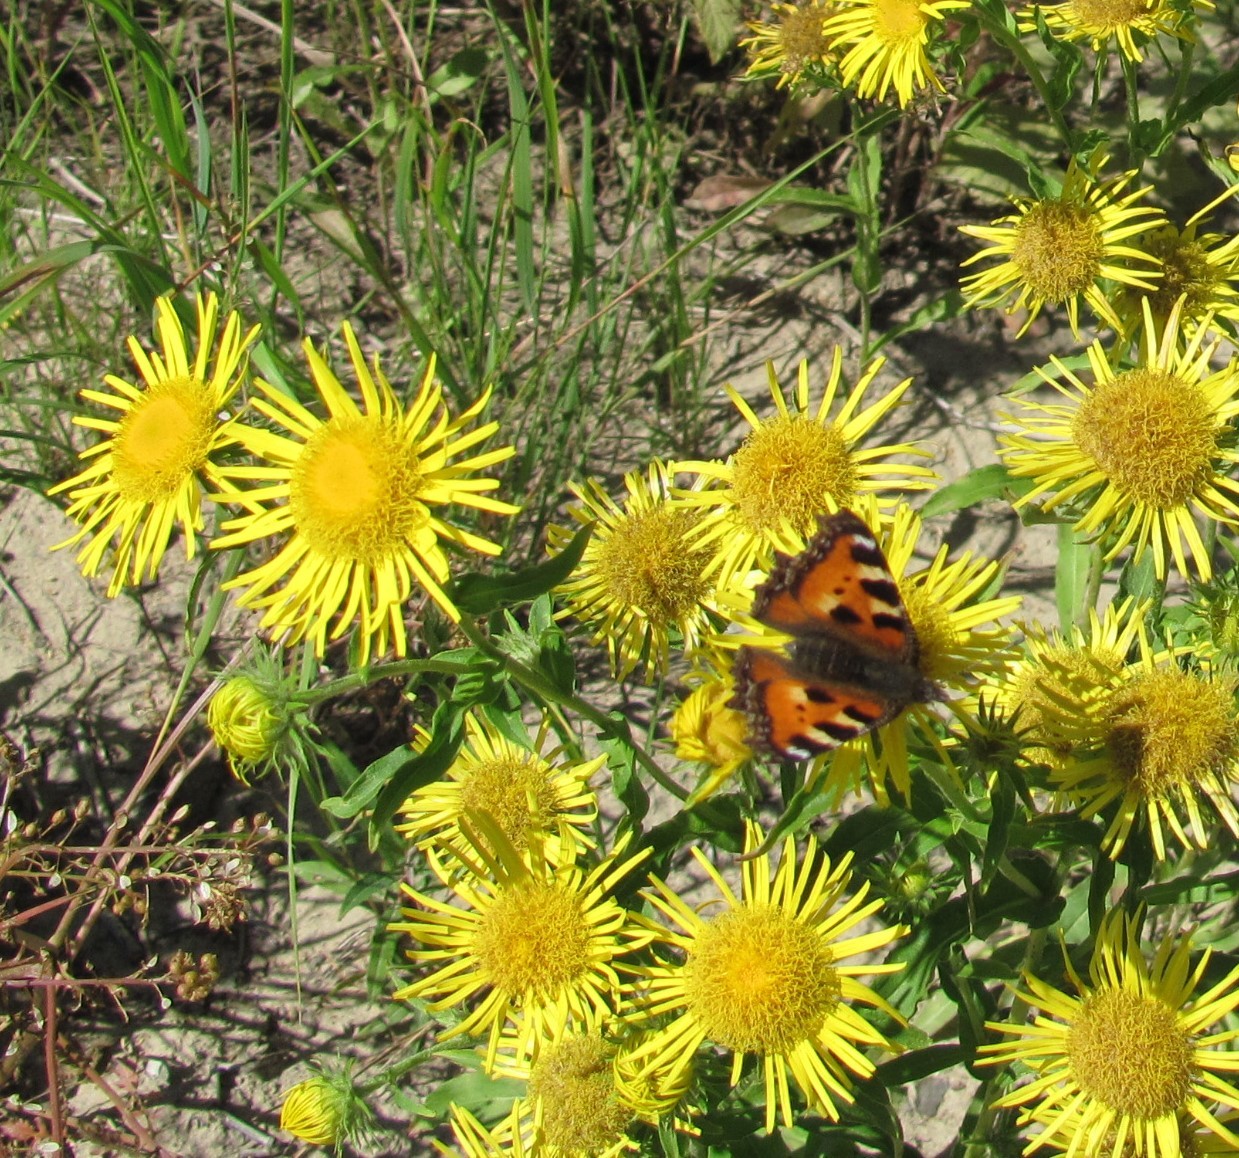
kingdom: Animalia
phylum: Arthropoda
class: Insecta
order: Lepidoptera
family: Nymphalidae
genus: Aglais
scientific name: Aglais urticae
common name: Small tortoiseshell
